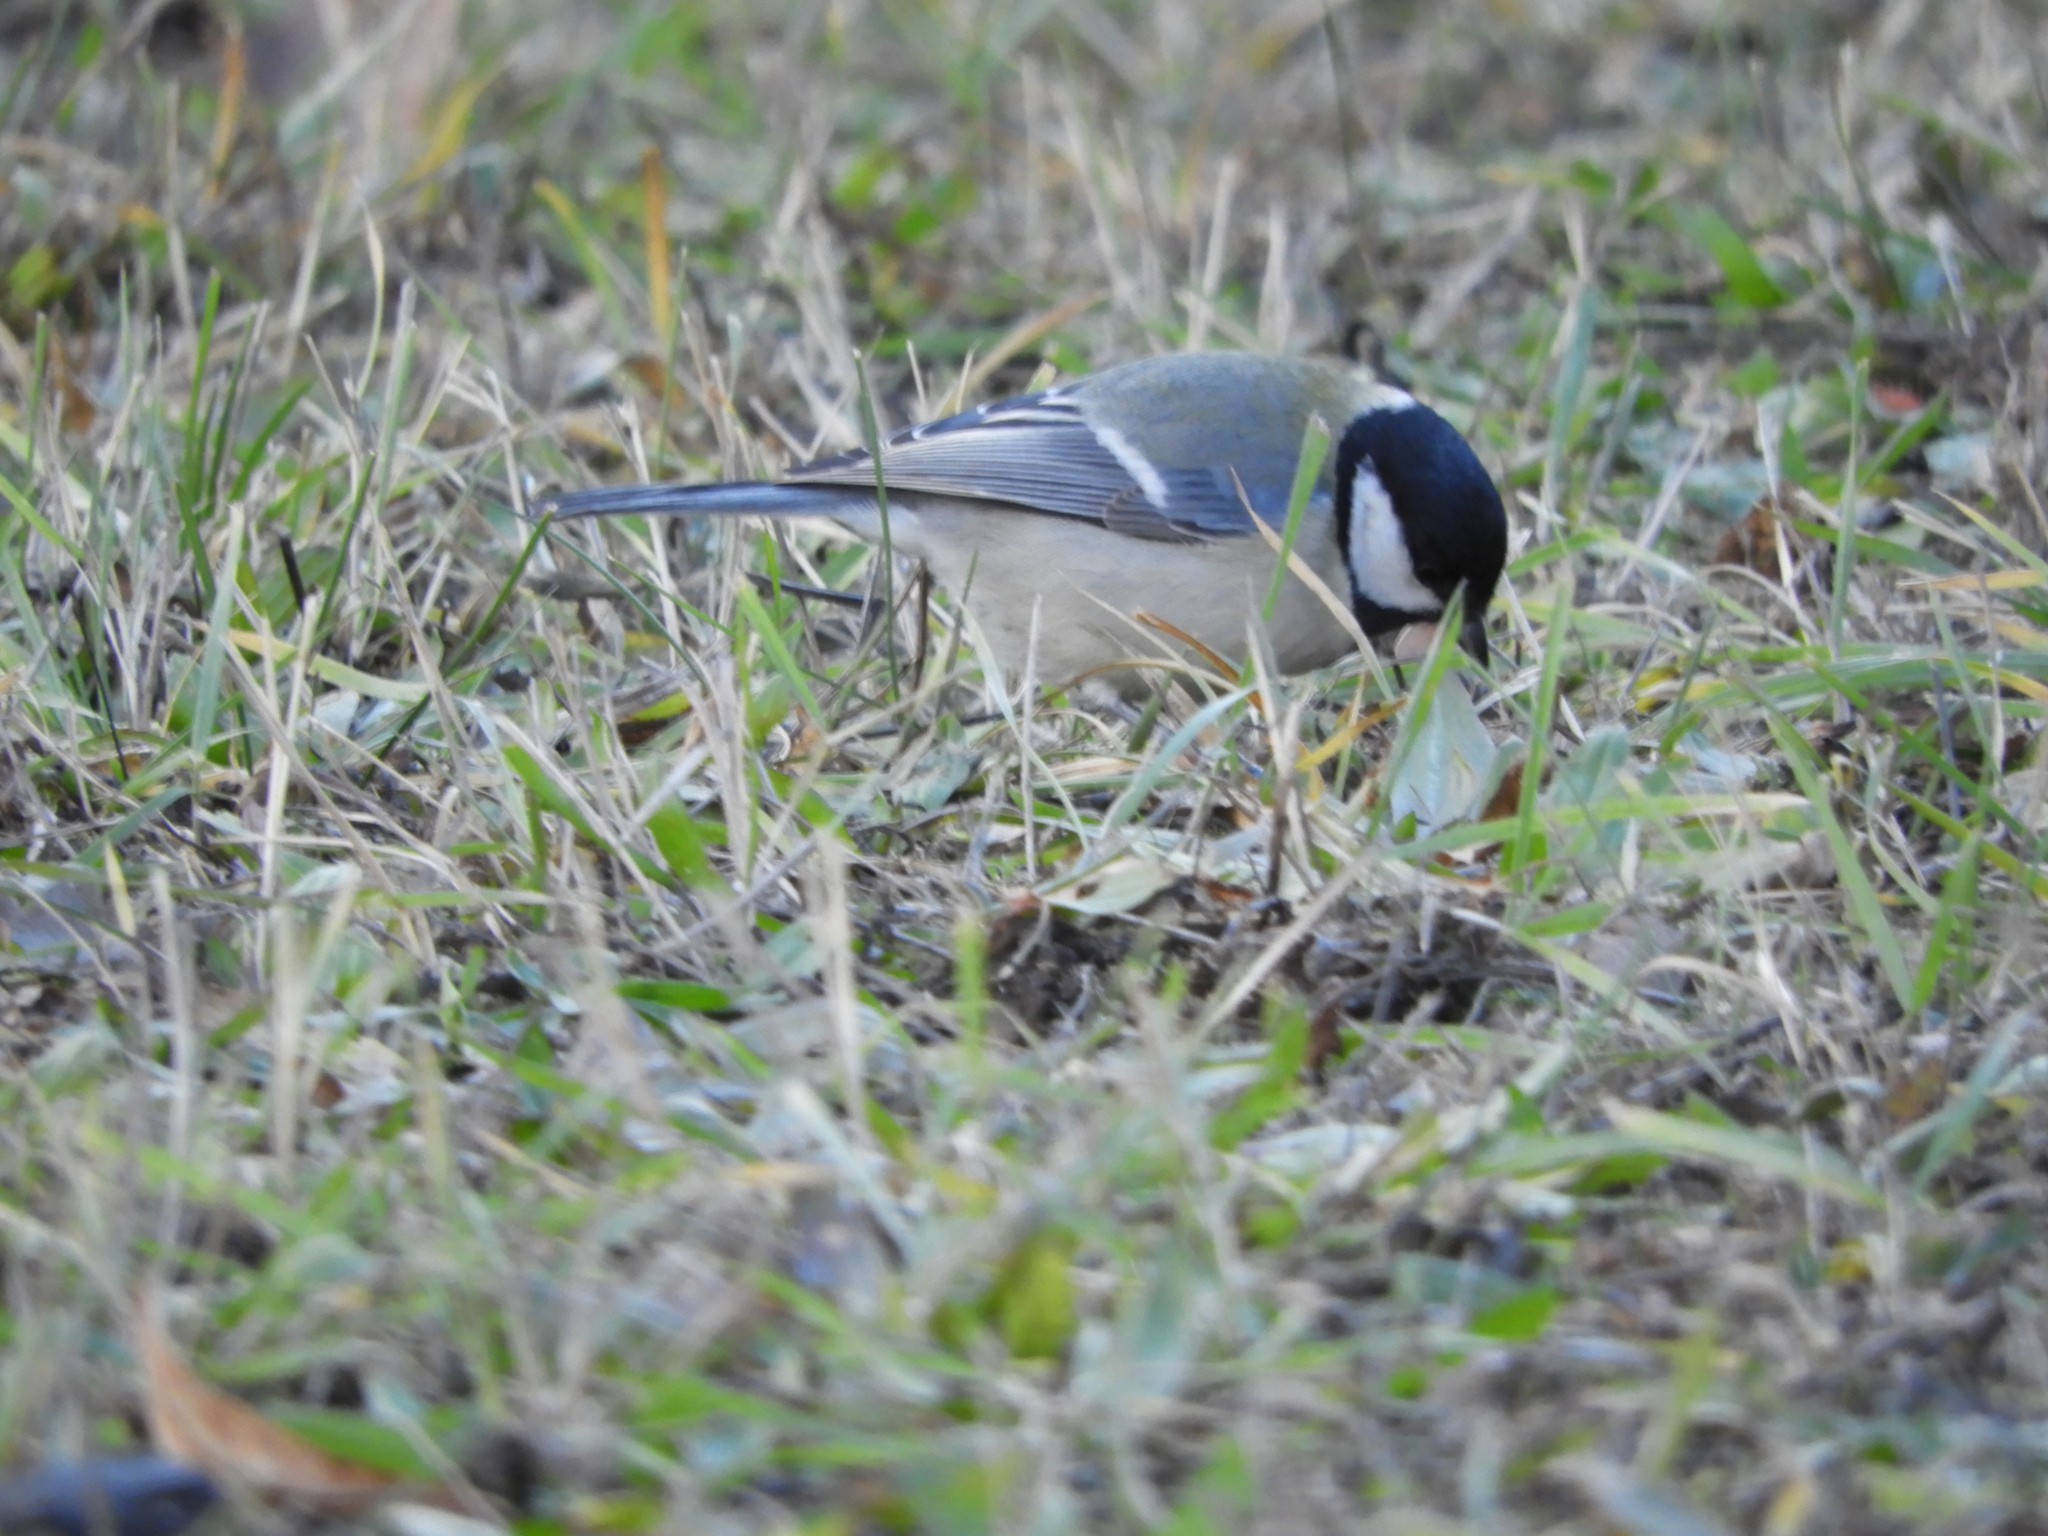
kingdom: Animalia
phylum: Chordata
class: Aves
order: Passeriformes
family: Paridae
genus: Parus
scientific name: Parus major
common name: Great tit
